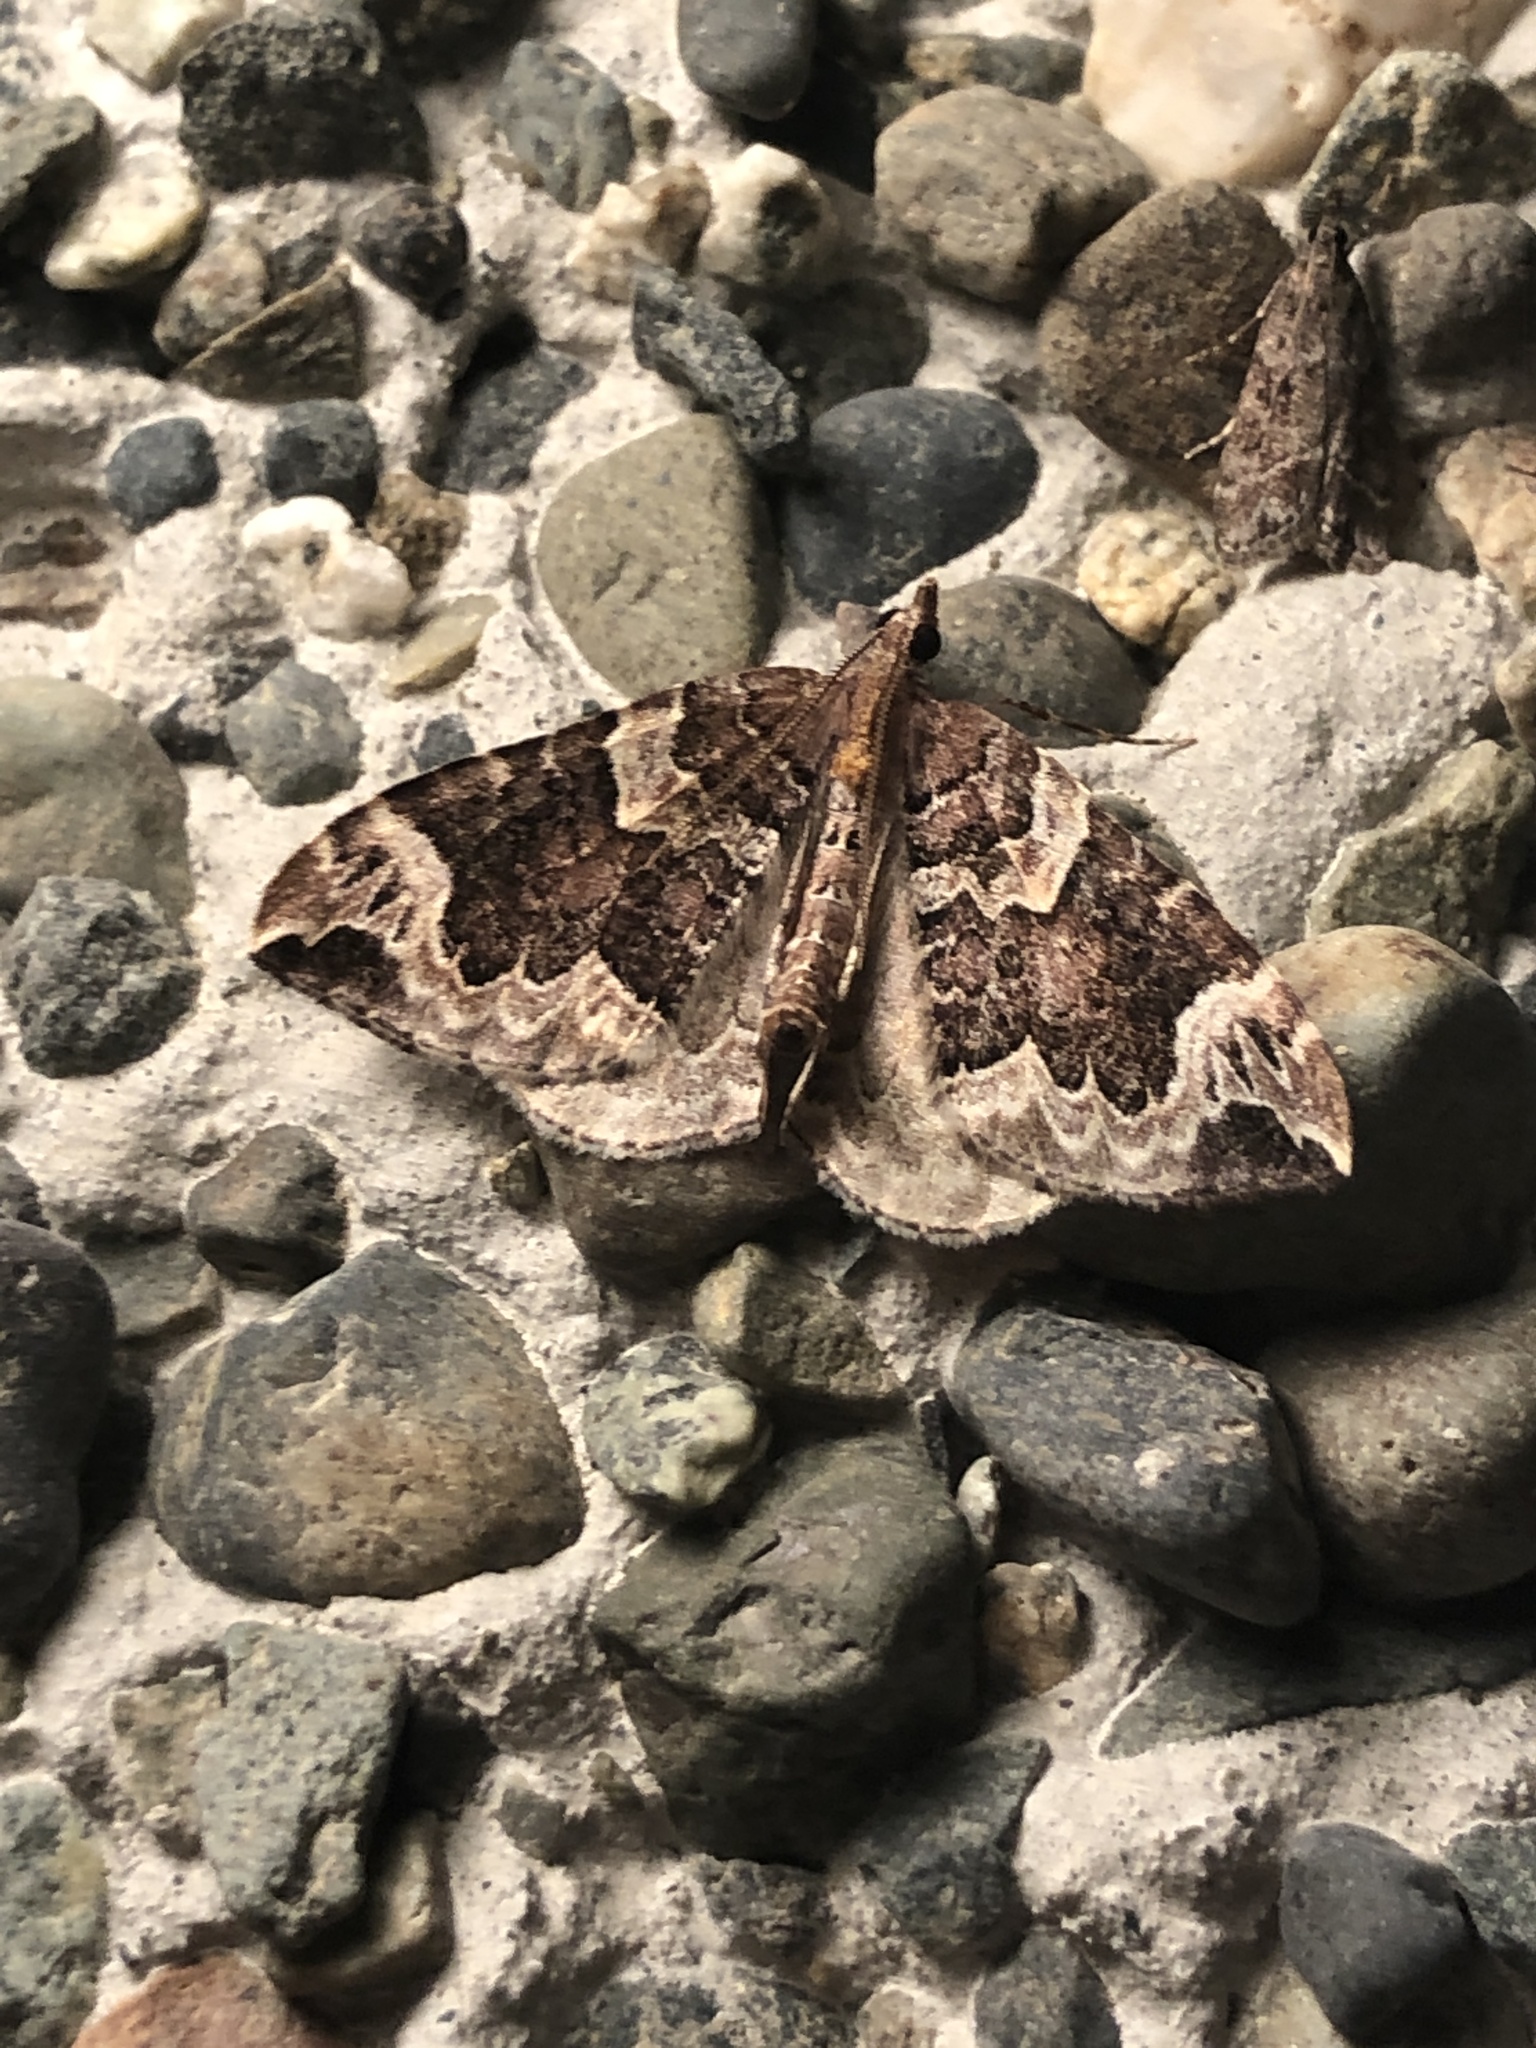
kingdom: Animalia
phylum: Arthropoda
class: Insecta
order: Lepidoptera
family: Geometridae
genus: Eulithis
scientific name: Eulithis xylina
